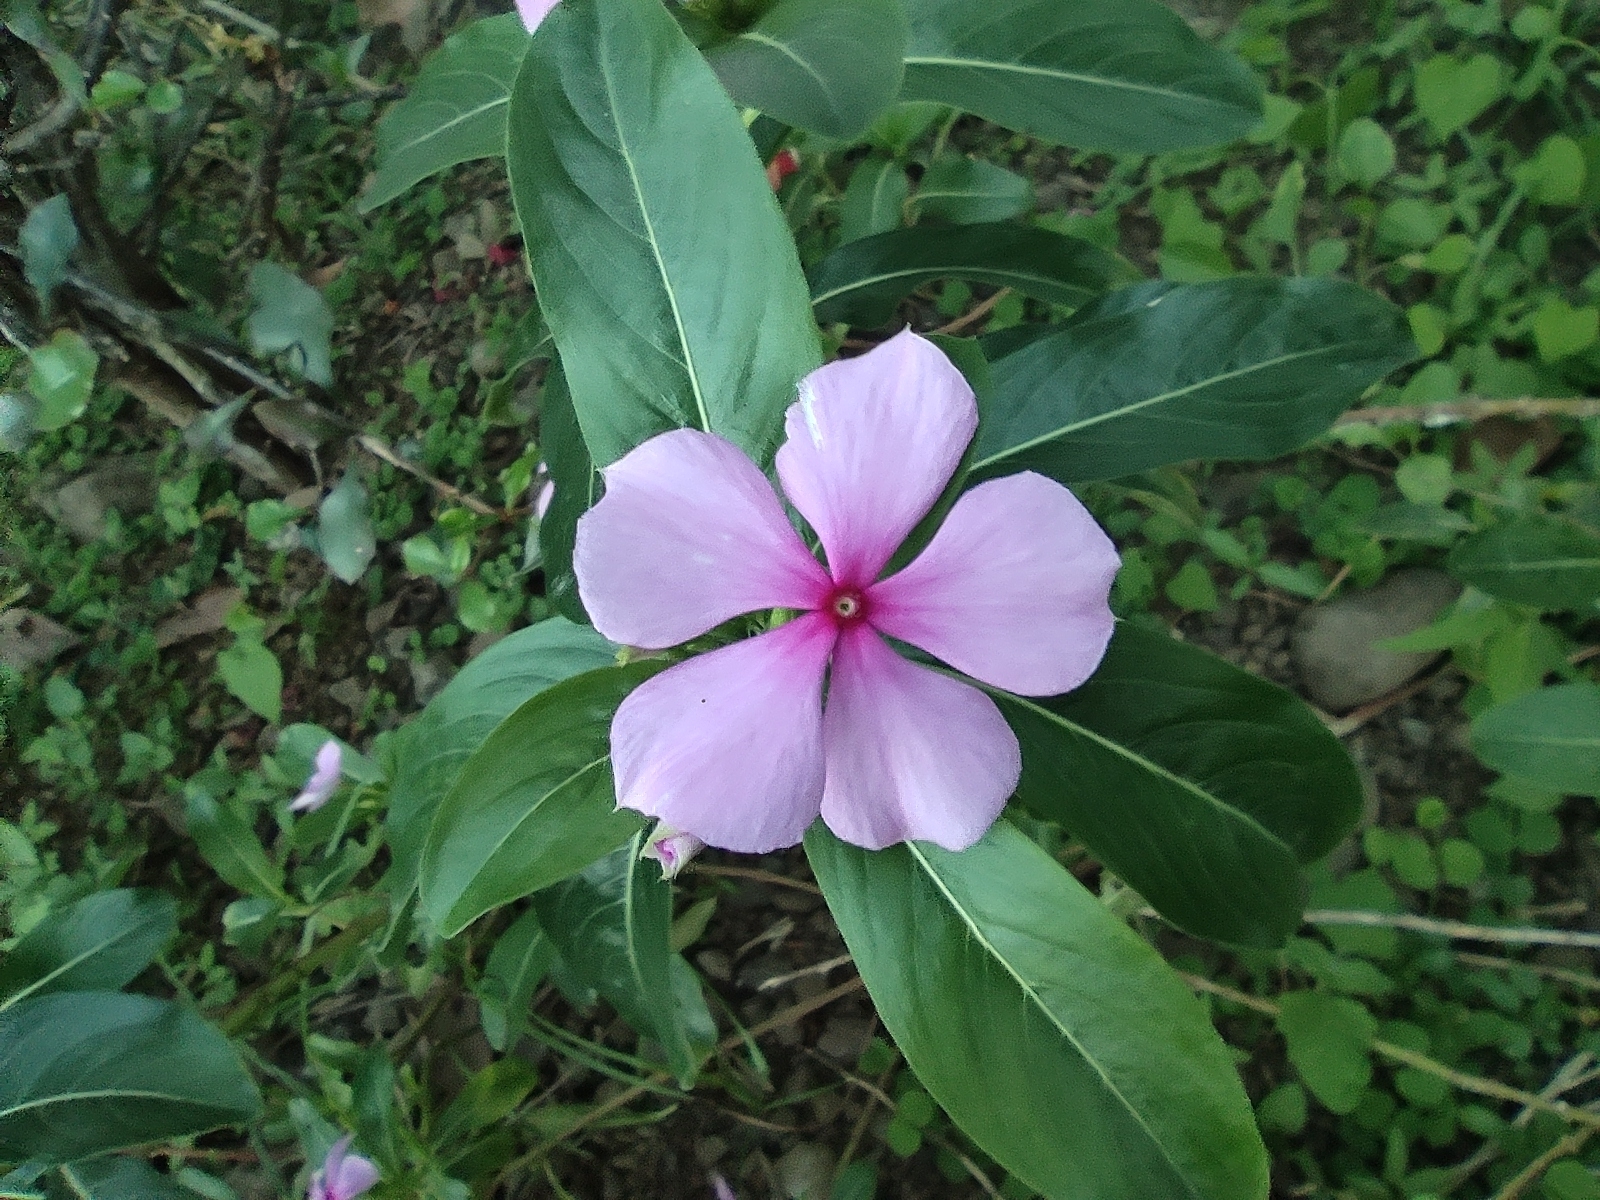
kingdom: Plantae
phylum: Tracheophyta
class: Magnoliopsida
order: Gentianales
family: Apocynaceae
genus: Catharanthus
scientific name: Catharanthus roseus
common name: Madagascar periwinkle
